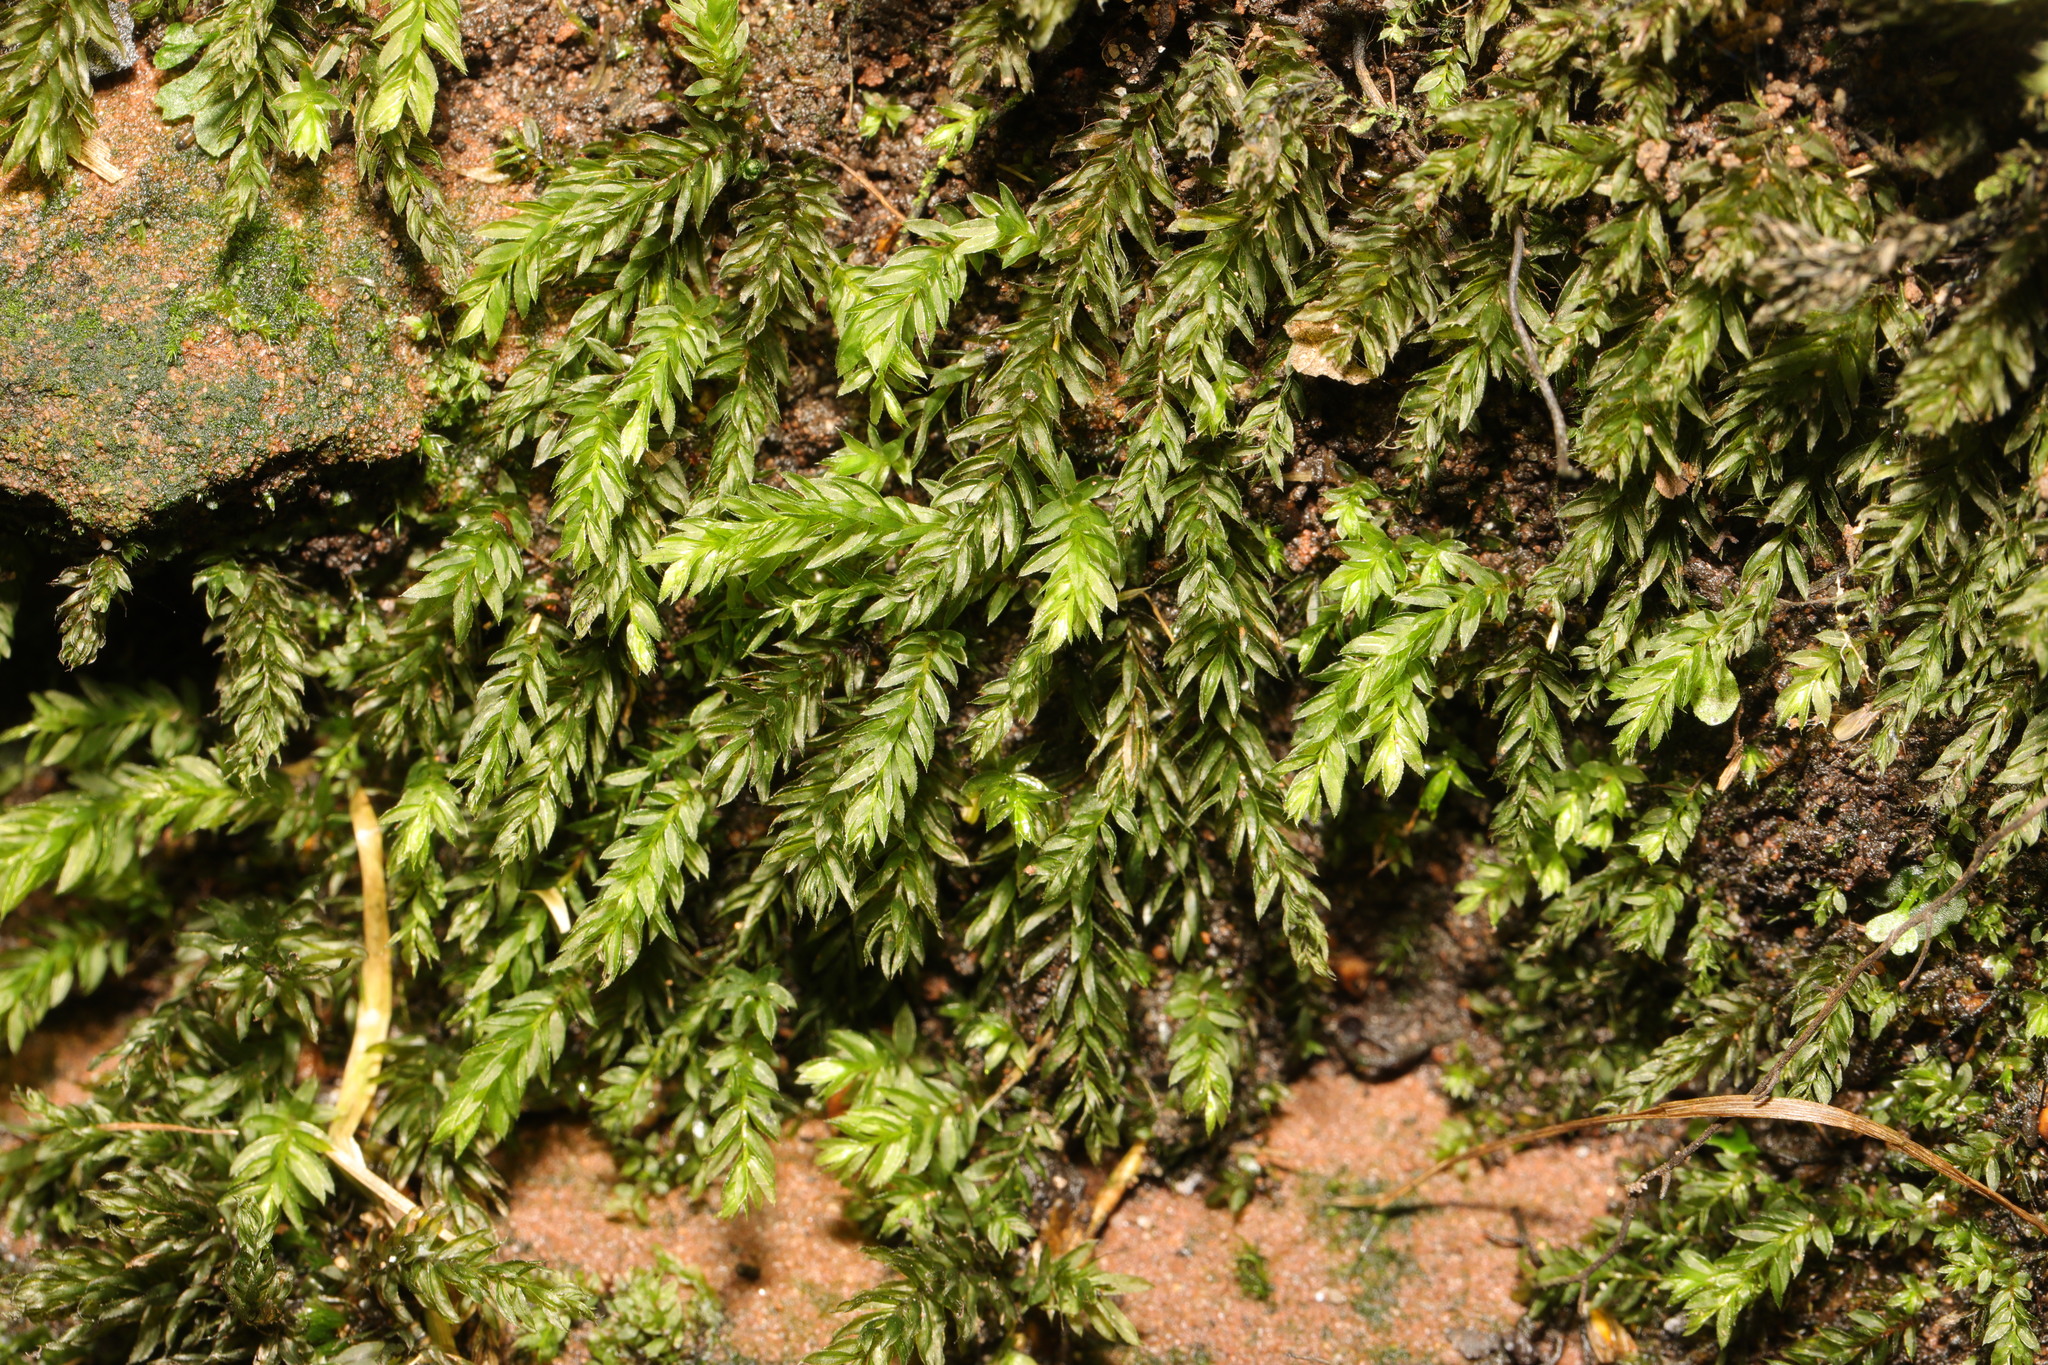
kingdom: Plantae
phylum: Bryophyta
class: Bryopsida
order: Bryales
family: Mniaceae
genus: Mnium
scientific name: Mnium hornum
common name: Swan's-neck leafy moss
